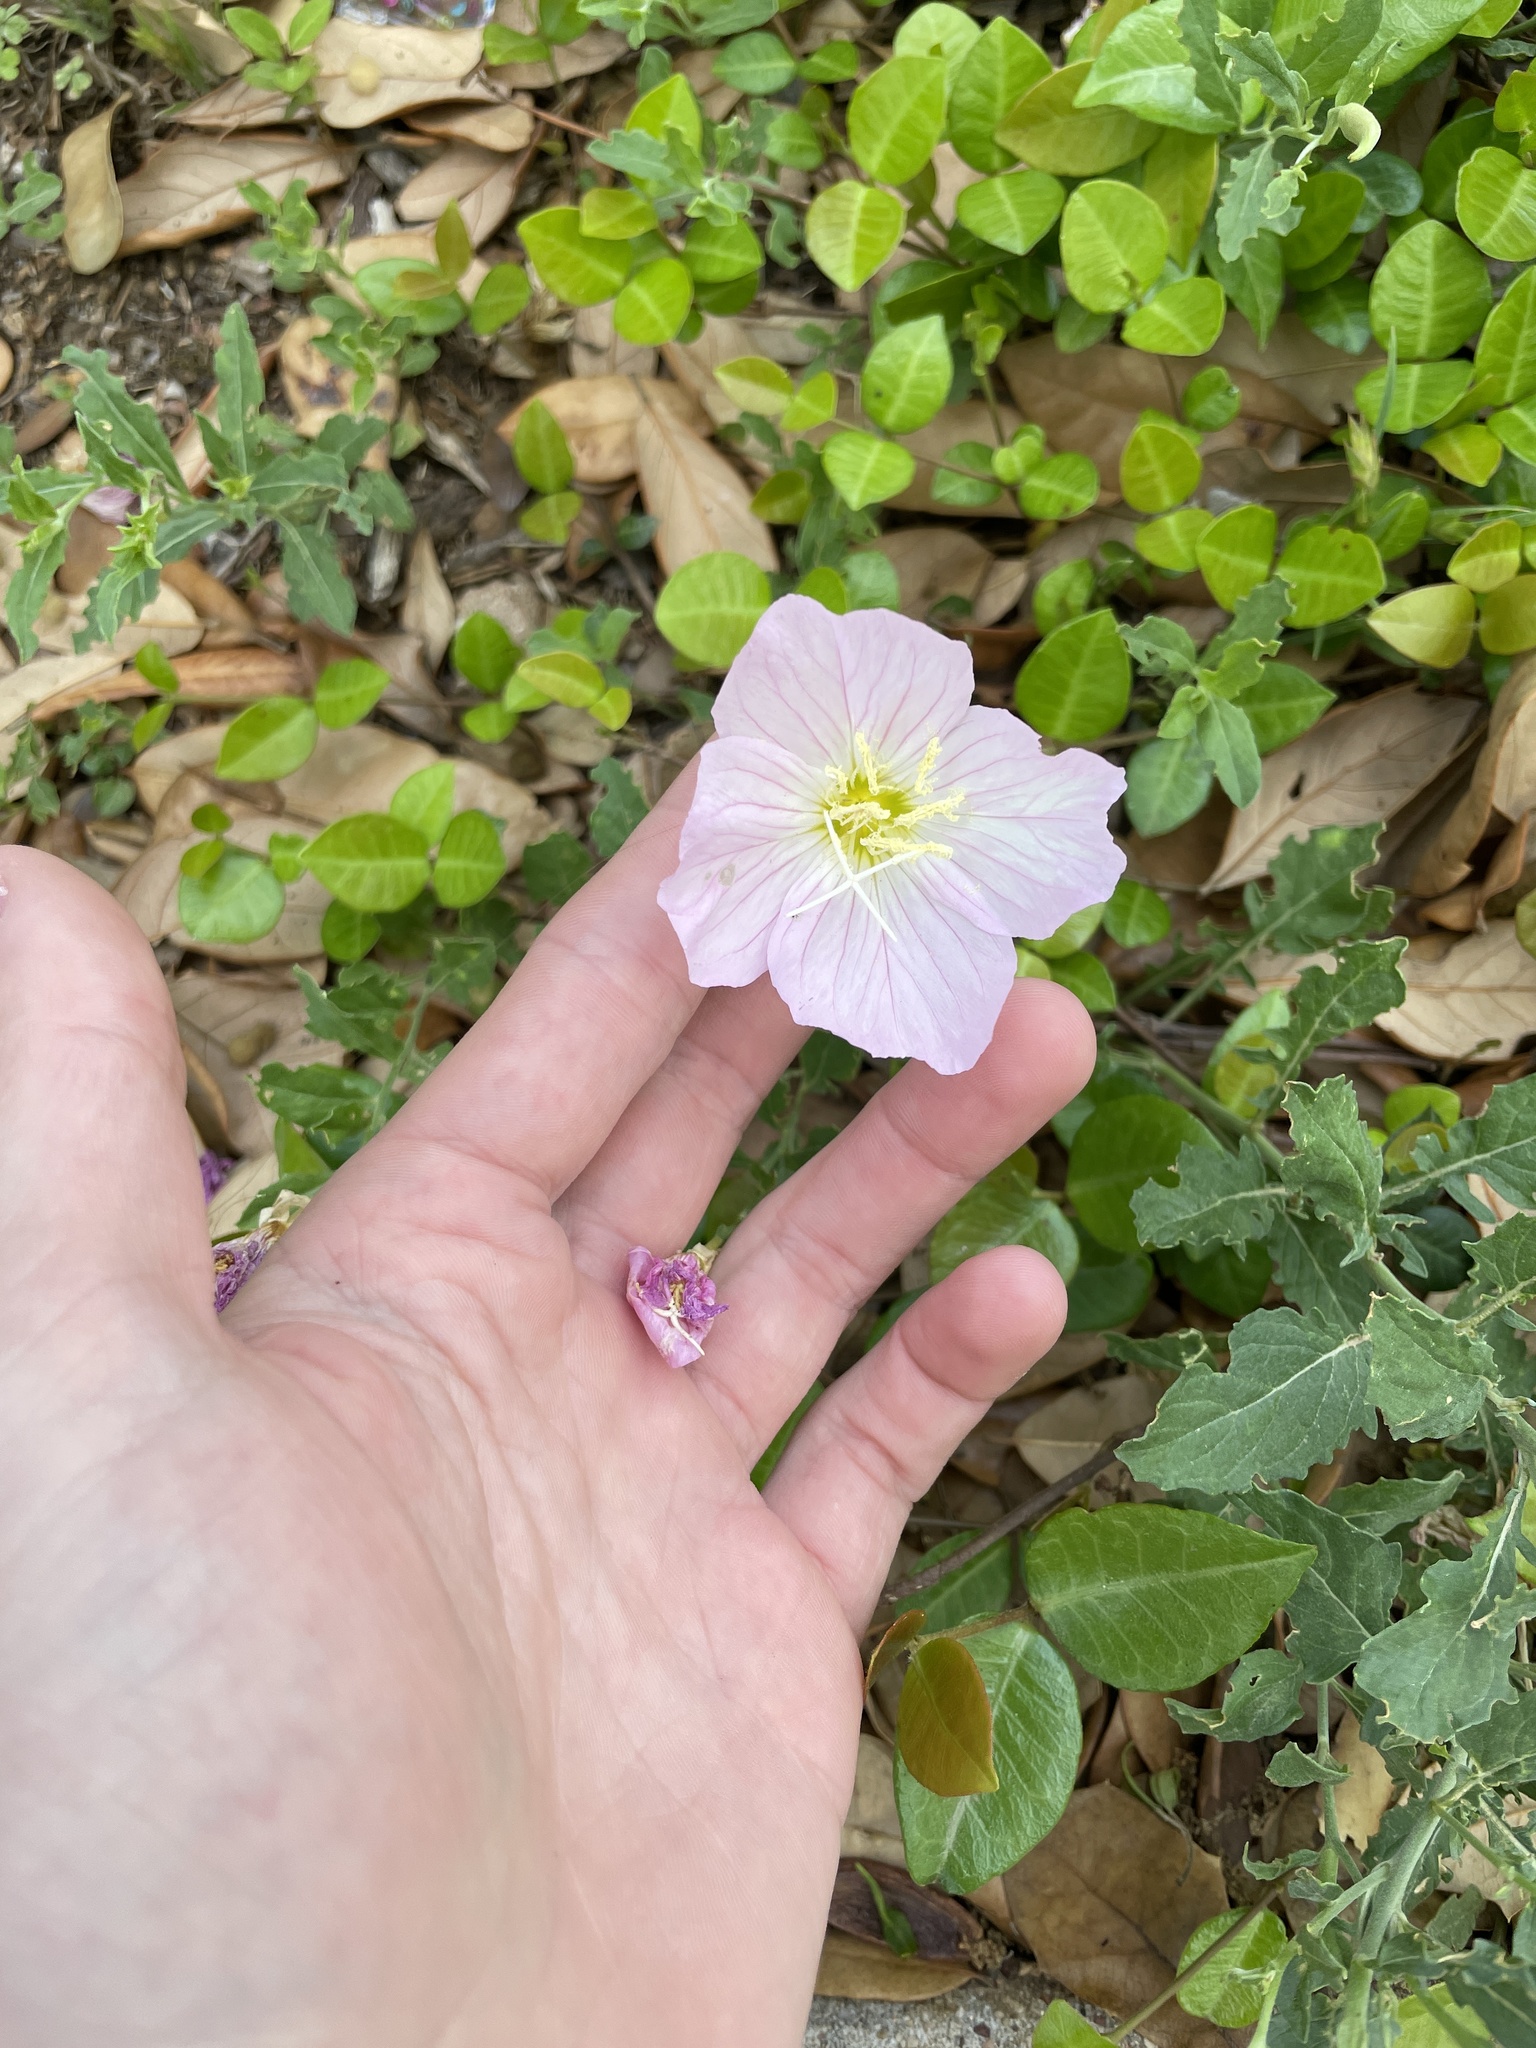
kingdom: Plantae
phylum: Tracheophyta
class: Magnoliopsida
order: Myrtales
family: Onagraceae
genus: Oenothera
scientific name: Oenothera speciosa
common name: White evening-primrose
